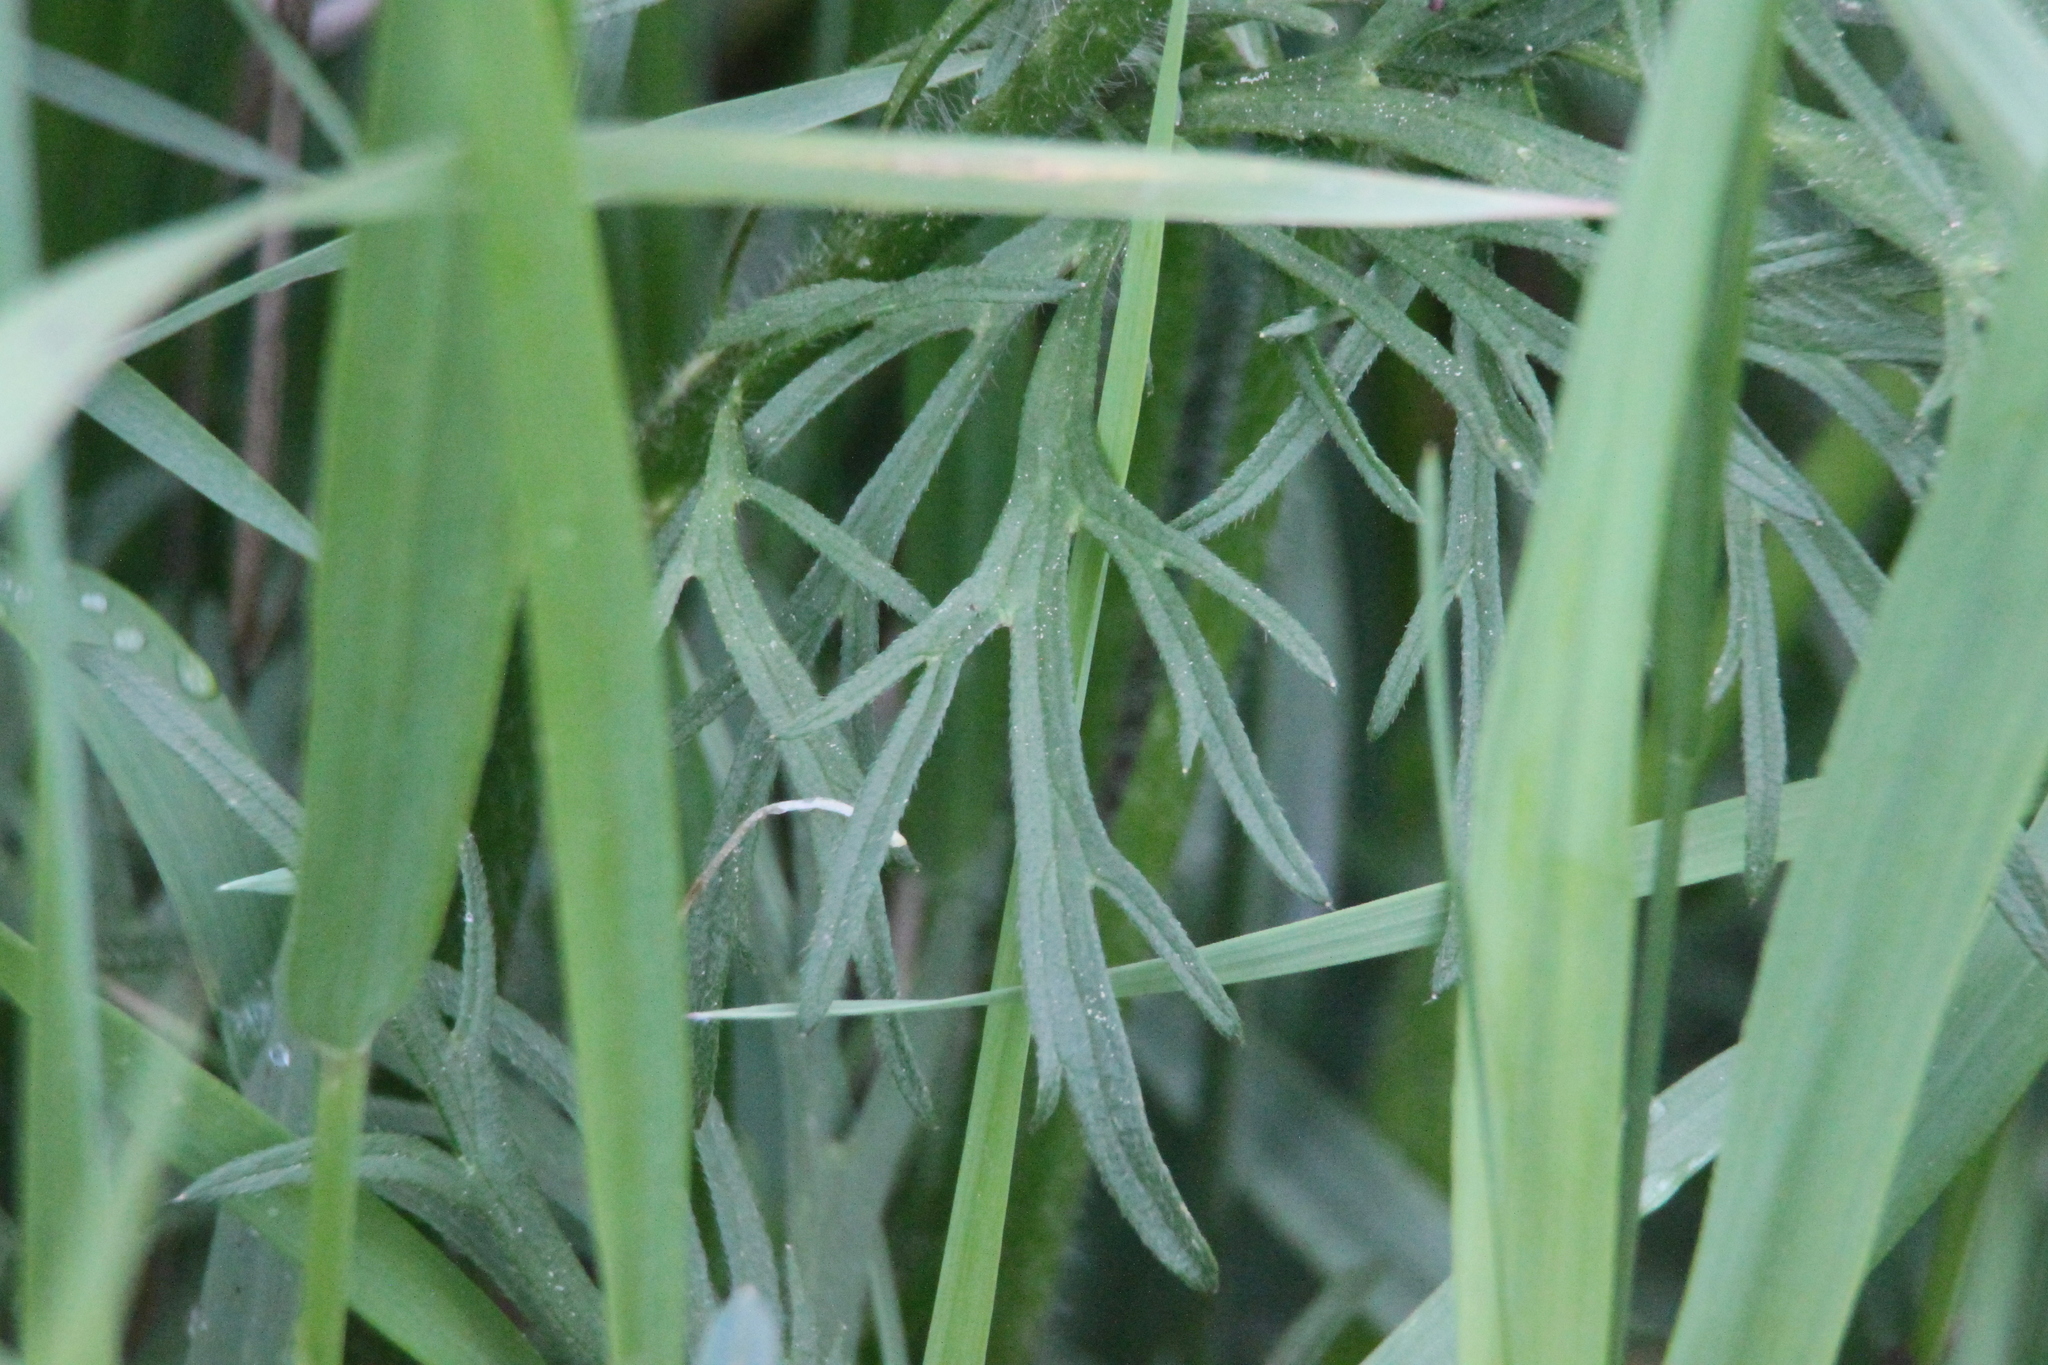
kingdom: Plantae
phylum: Tracheophyta
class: Magnoliopsida
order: Ranunculales
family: Ranunculaceae
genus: Ranunculus
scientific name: Ranunculus polyanthemos
